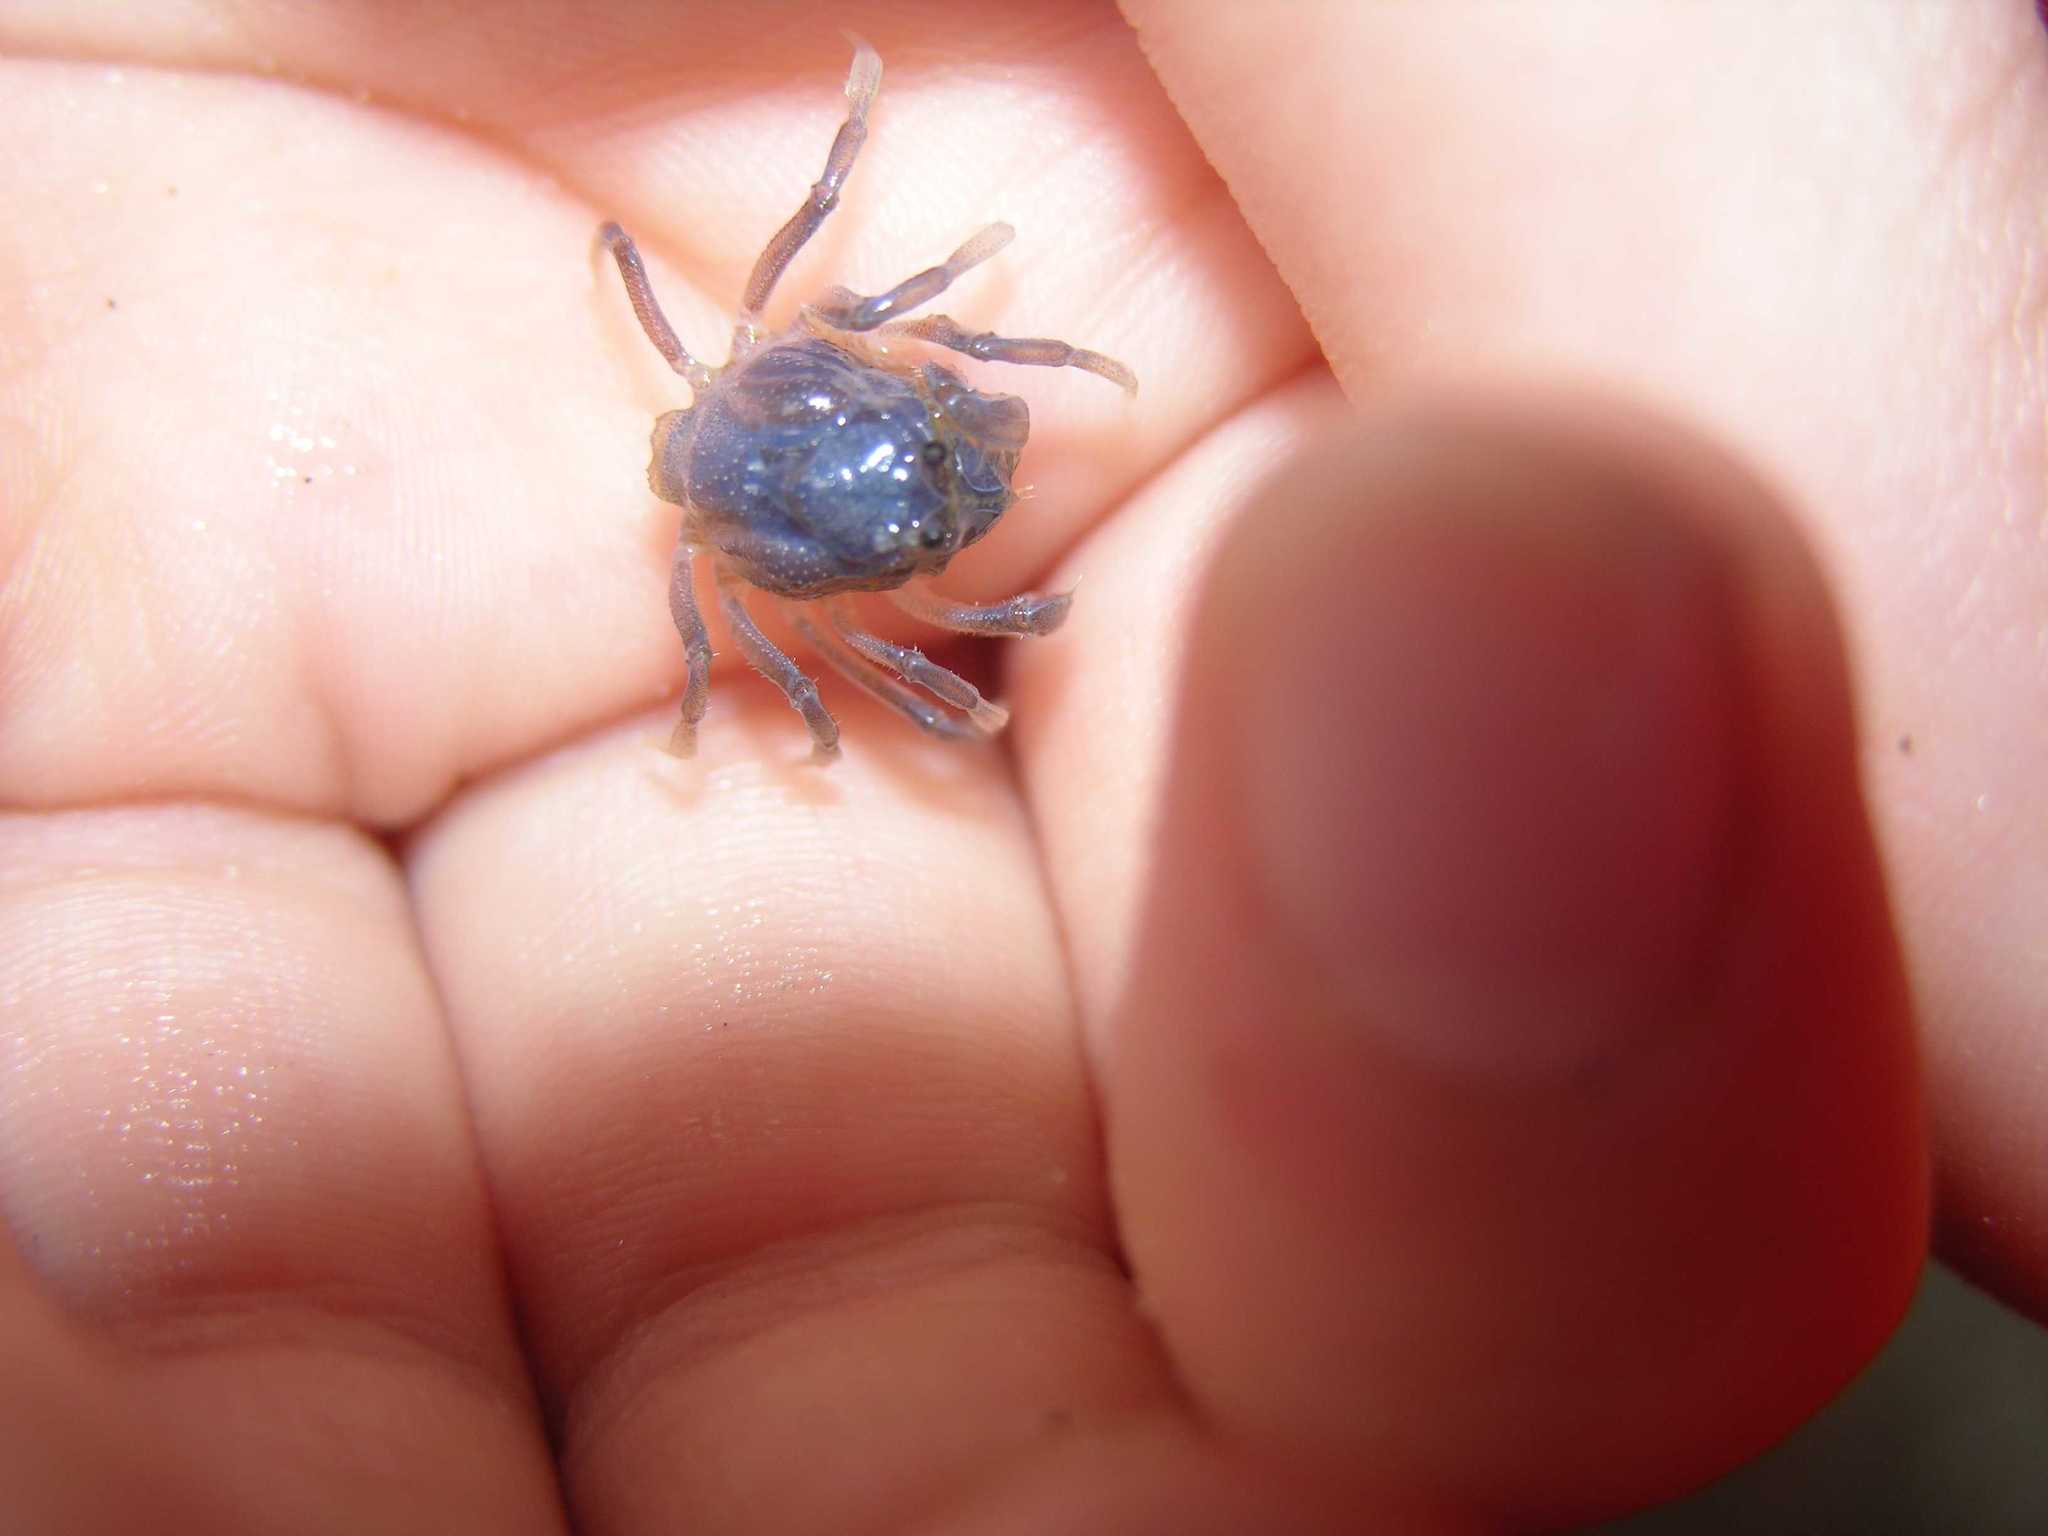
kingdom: Animalia
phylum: Arthropoda
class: Malacostraca
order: Decapoda
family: Mictyridae
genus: Mictyris
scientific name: Mictyris platycheles
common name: Dark blue soldier crab
